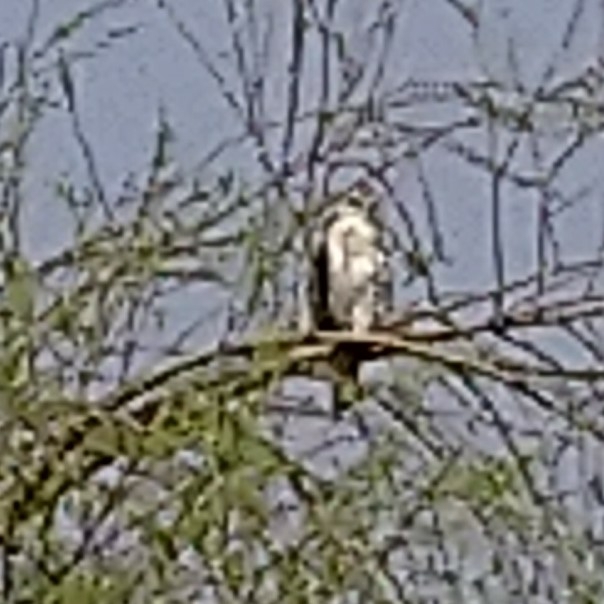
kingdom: Animalia
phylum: Chordata
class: Aves
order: Accipitriformes
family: Accipitridae
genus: Elanus
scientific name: Elanus caeruleus
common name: Black-winged kite
